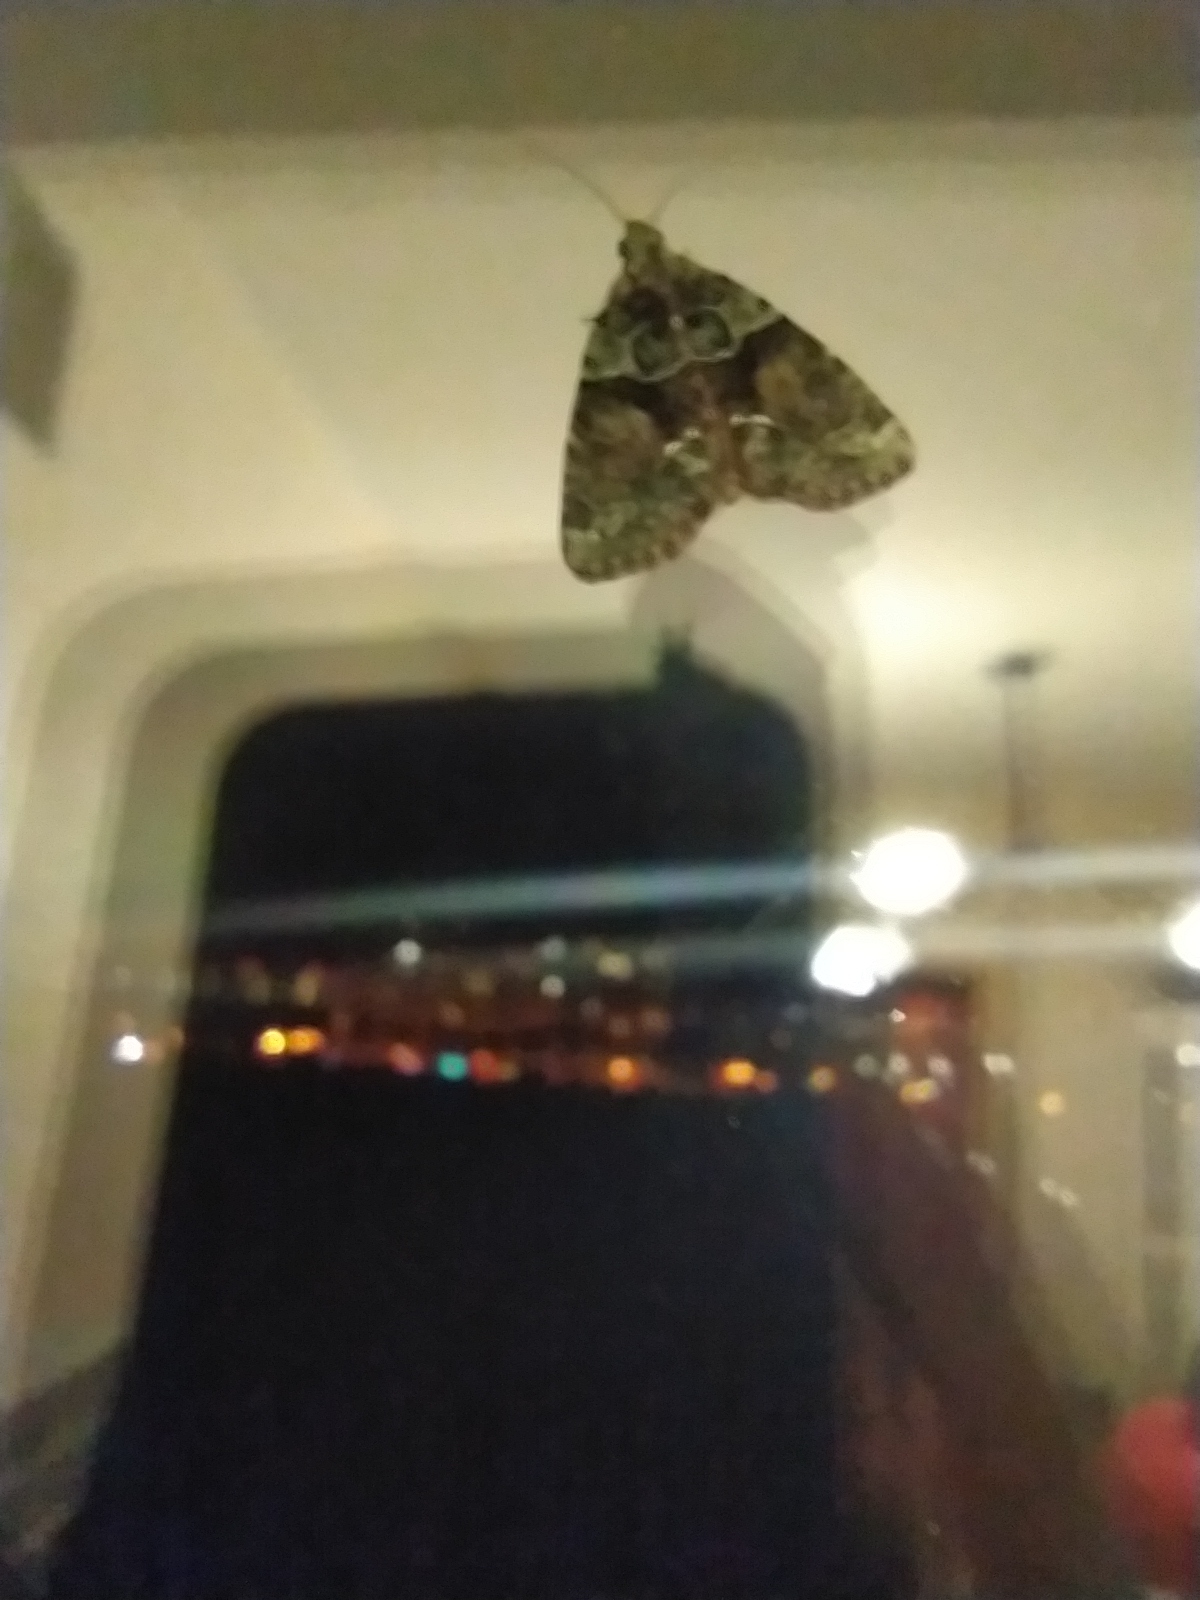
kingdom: Animalia
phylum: Arthropoda
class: Insecta
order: Lepidoptera
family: Noctuidae
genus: Cryphia
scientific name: Cryphia algae
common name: Tree-lichen beauty
